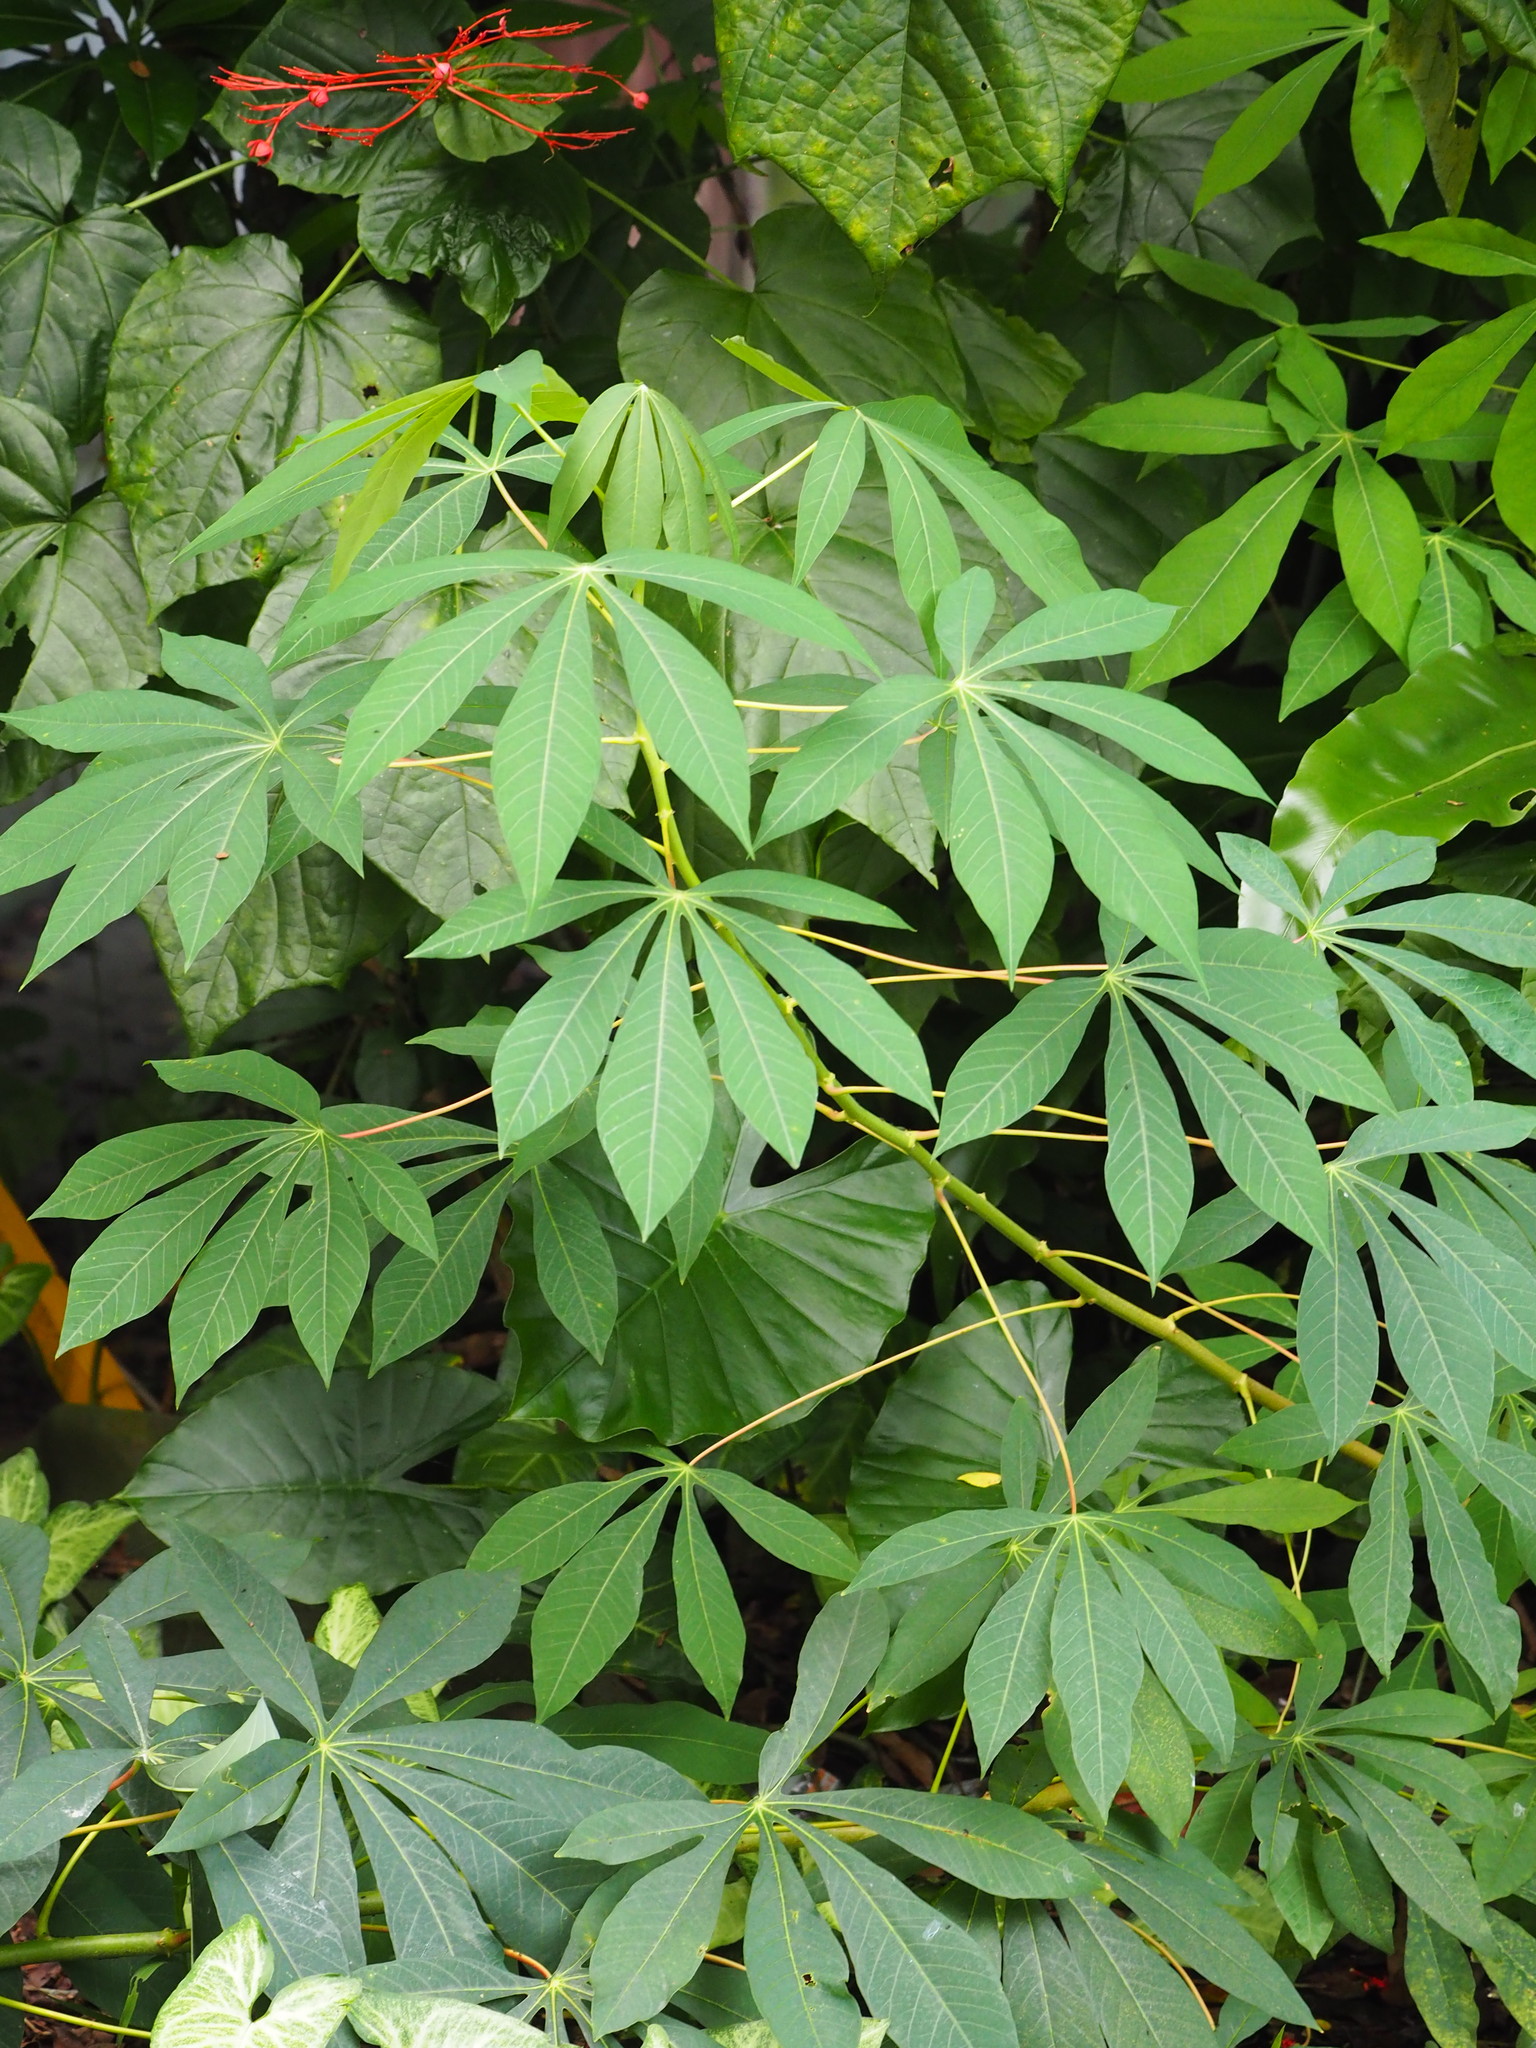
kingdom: Plantae
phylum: Tracheophyta
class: Magnoliopsida
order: Malpighiales
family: Euphorbiaceae
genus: Manihot
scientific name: Manihot esculenta
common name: Cassava
